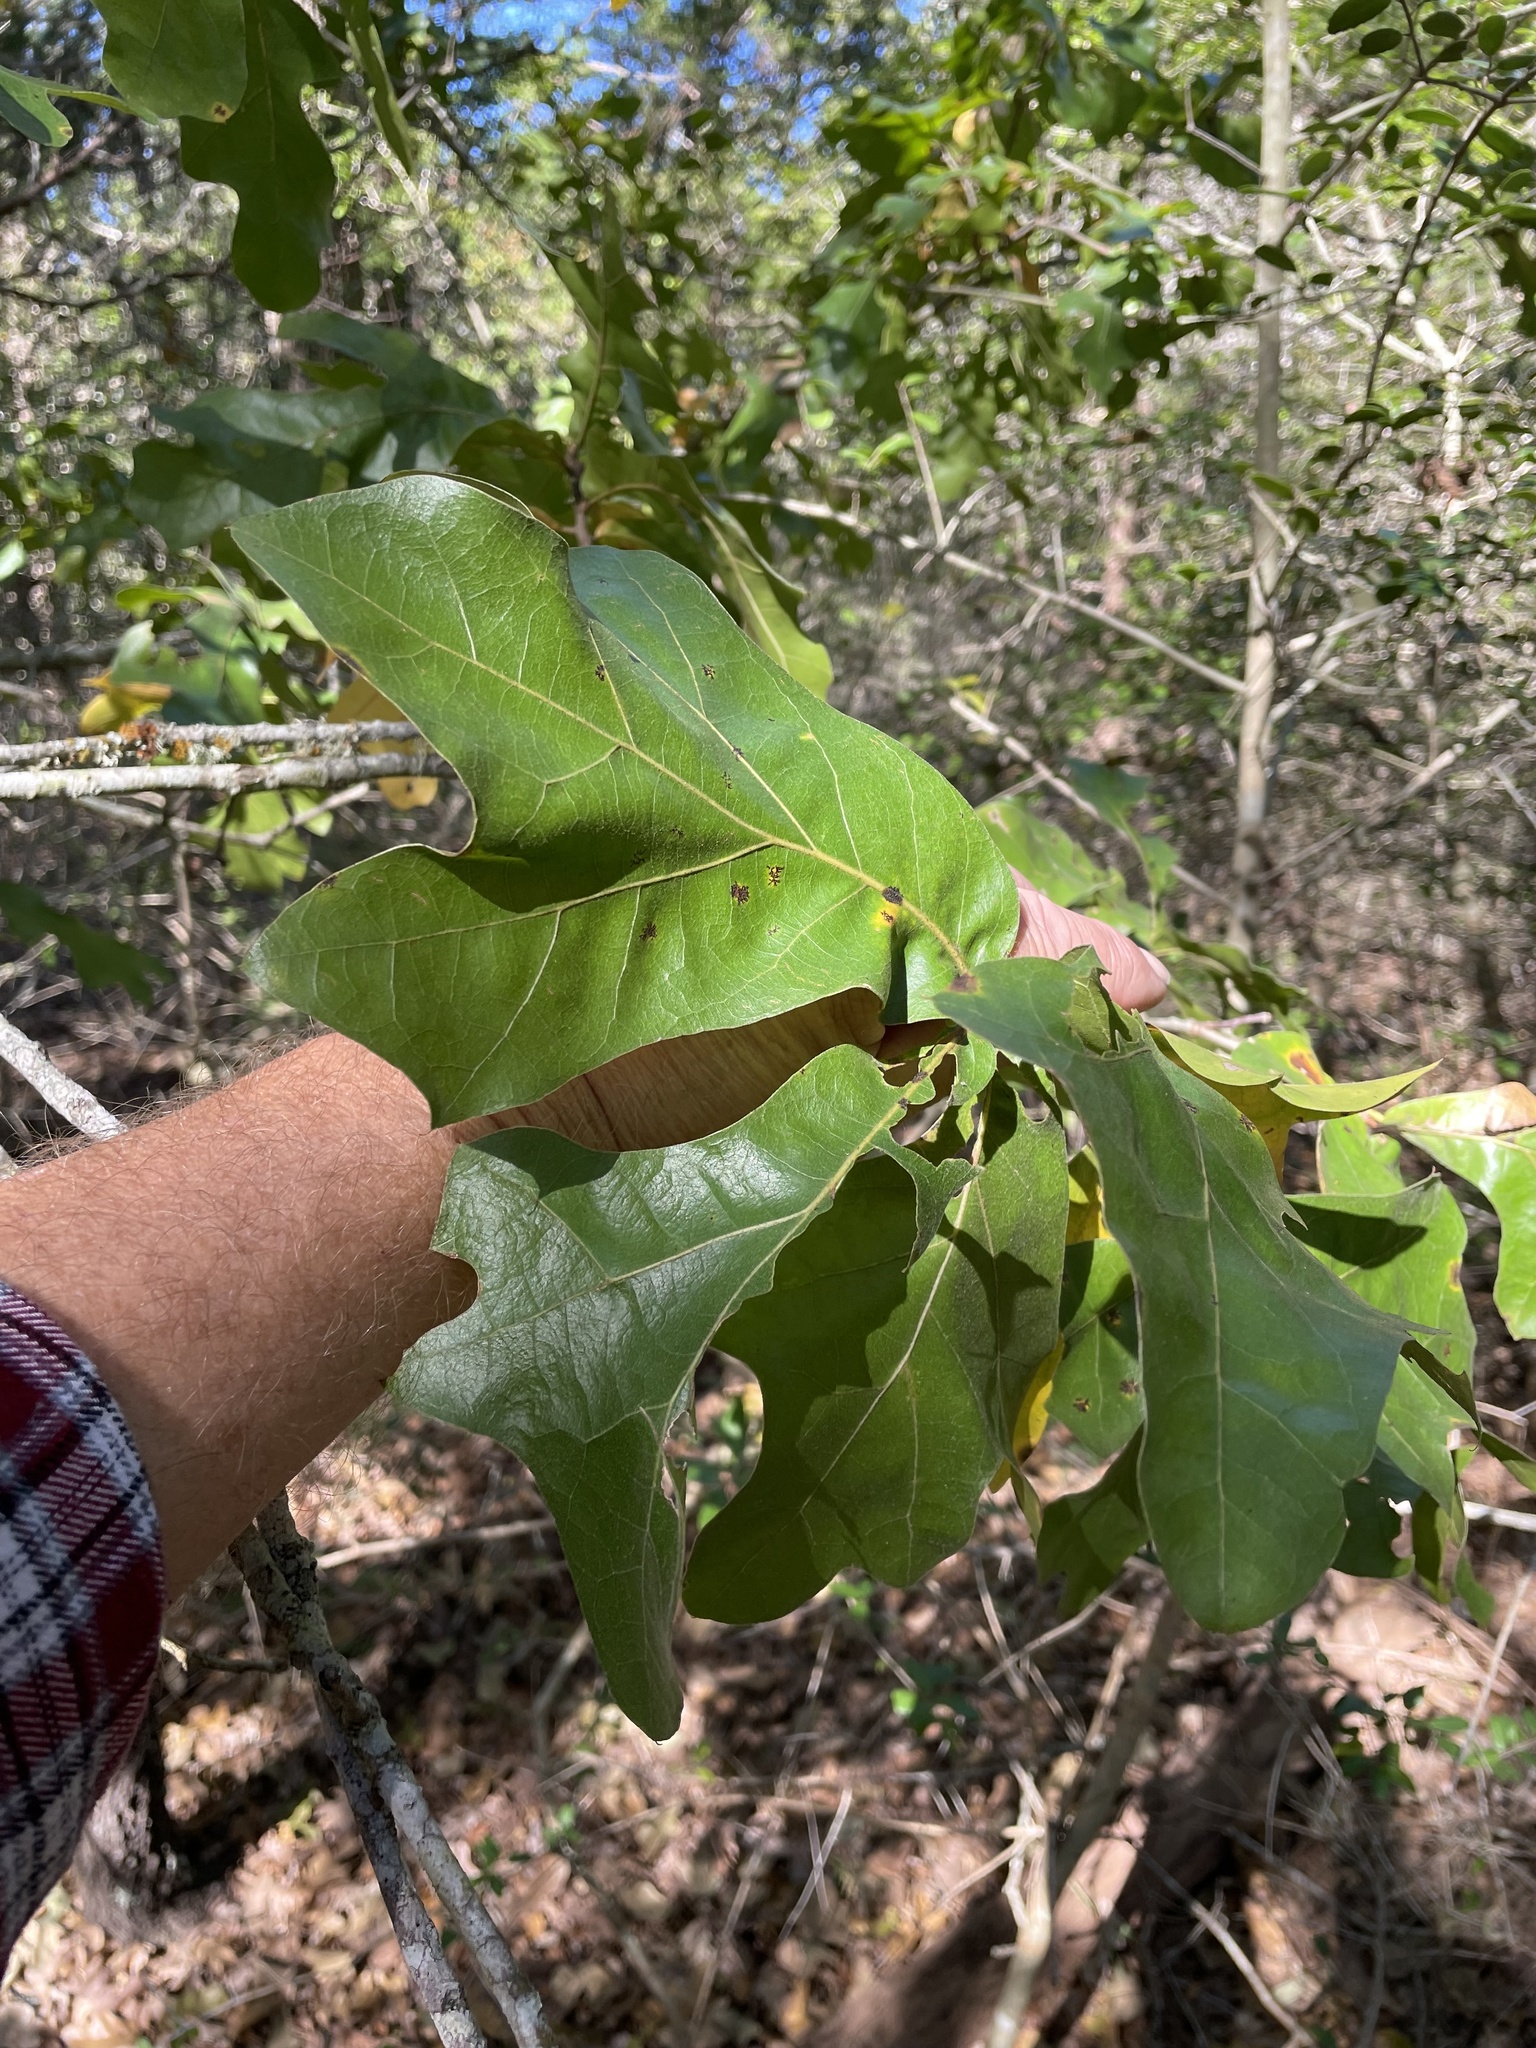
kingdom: Plantae
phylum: Tracheophyta
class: Magnoliopsida
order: Fagales
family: Fagaceae
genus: Quercus
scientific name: Quercus marilandica
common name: Blackjack oak
